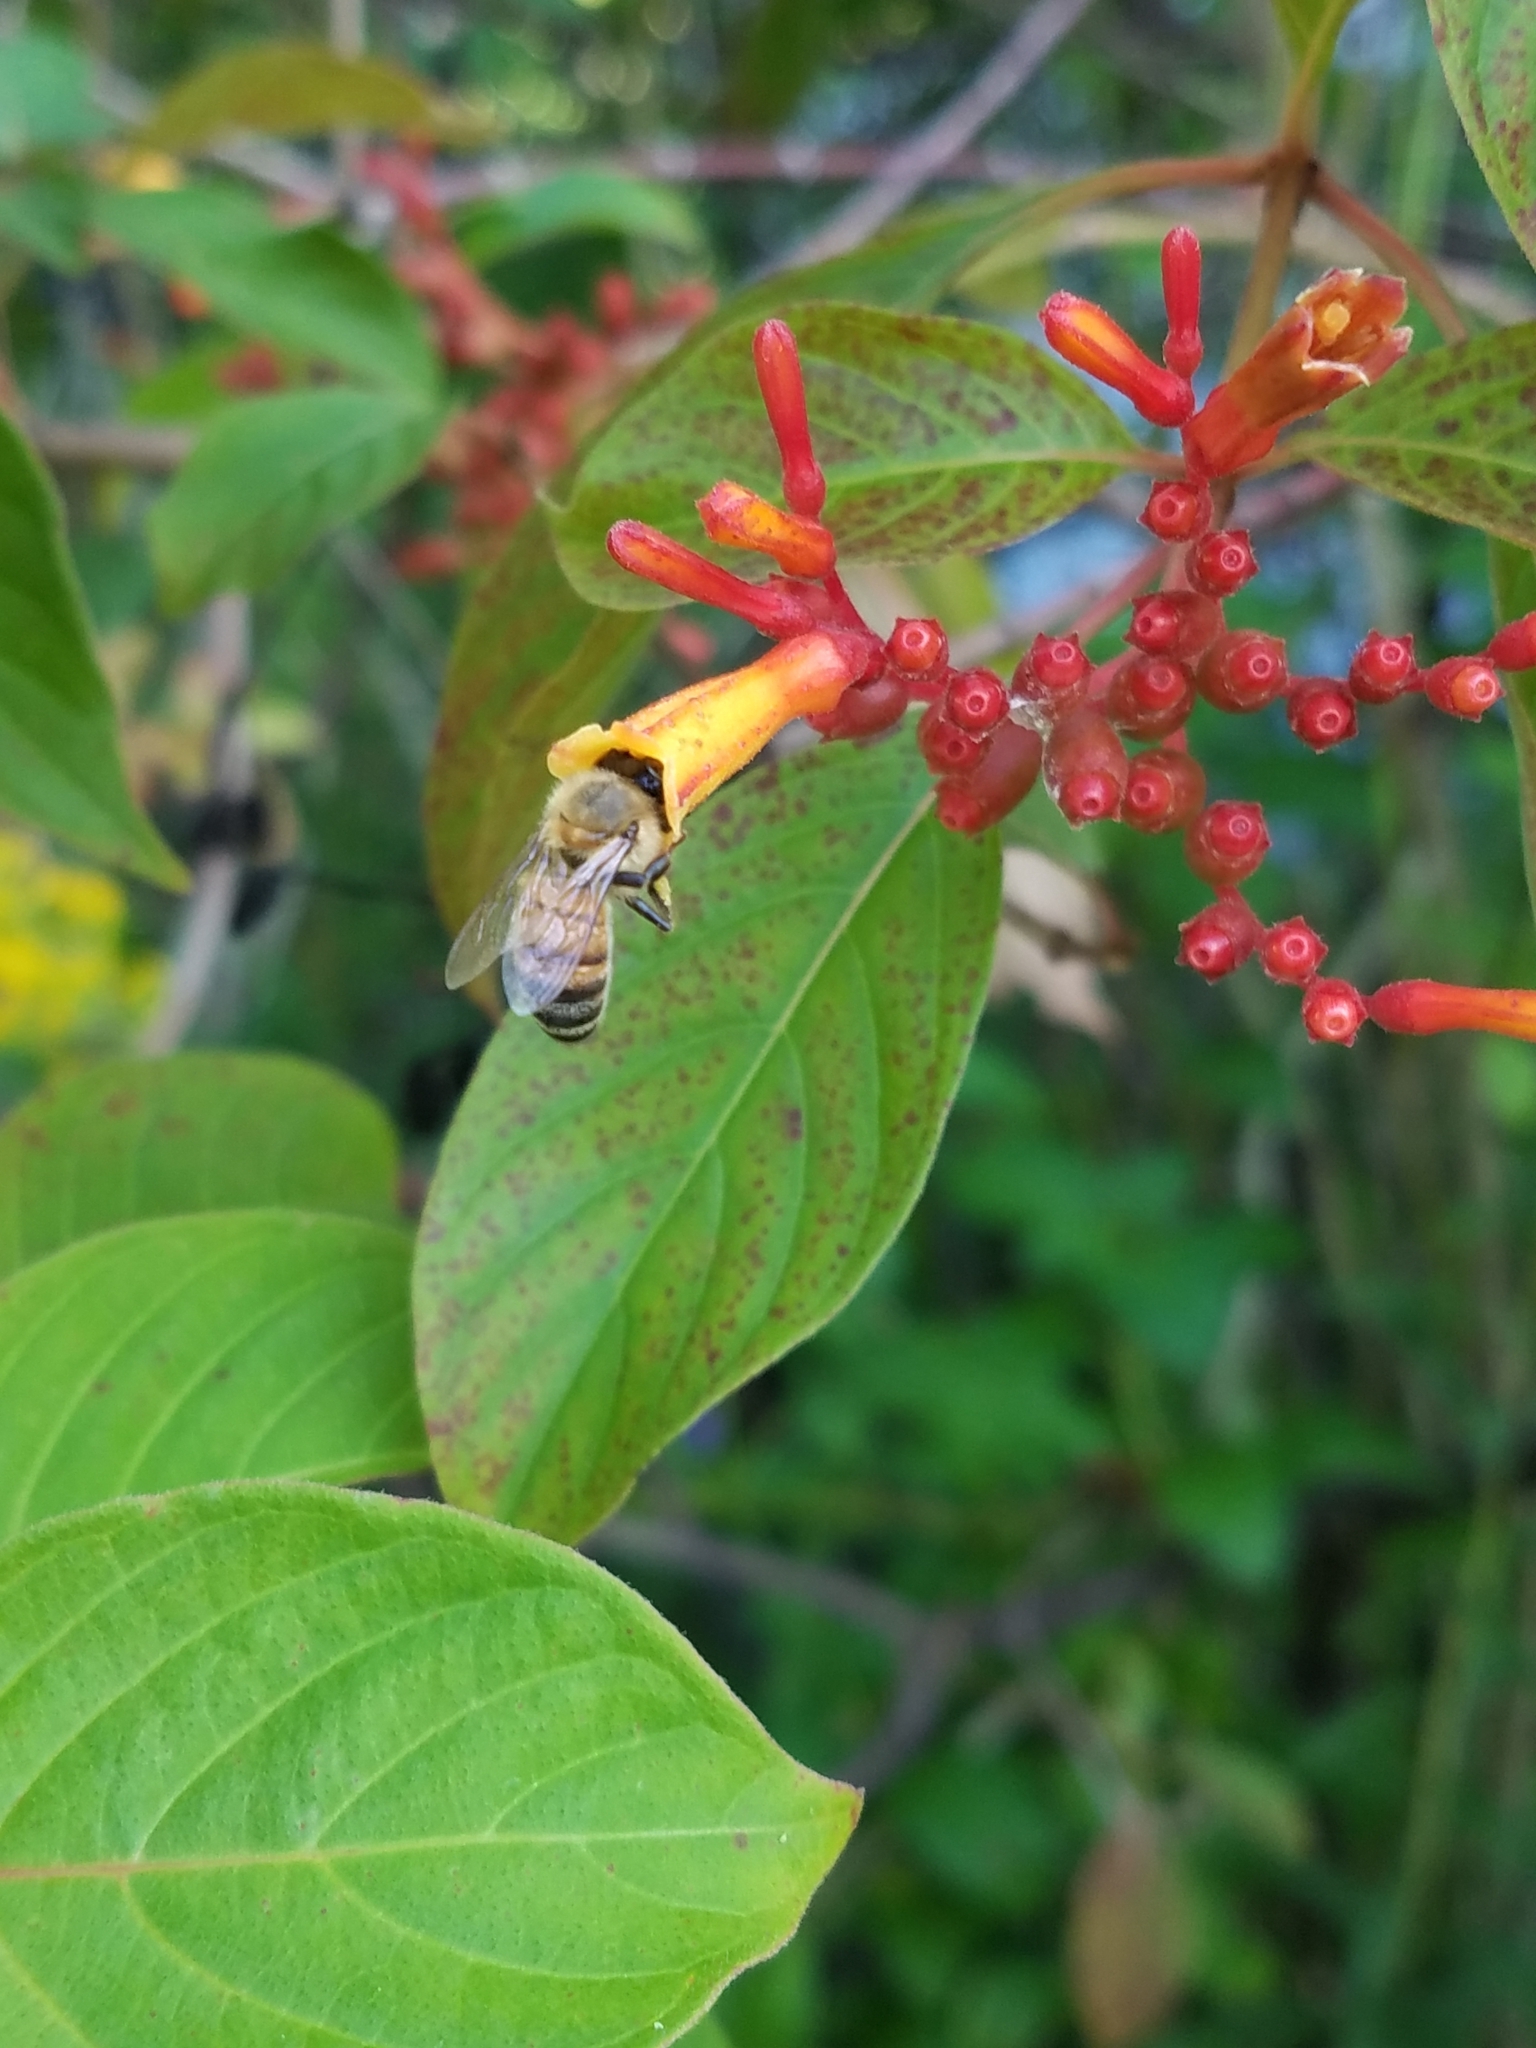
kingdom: Animalia
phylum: Arthropoda
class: Insecta
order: Hymenoptera
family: Apidae
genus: Apis
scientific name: Apis mellifera
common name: Honey bee
